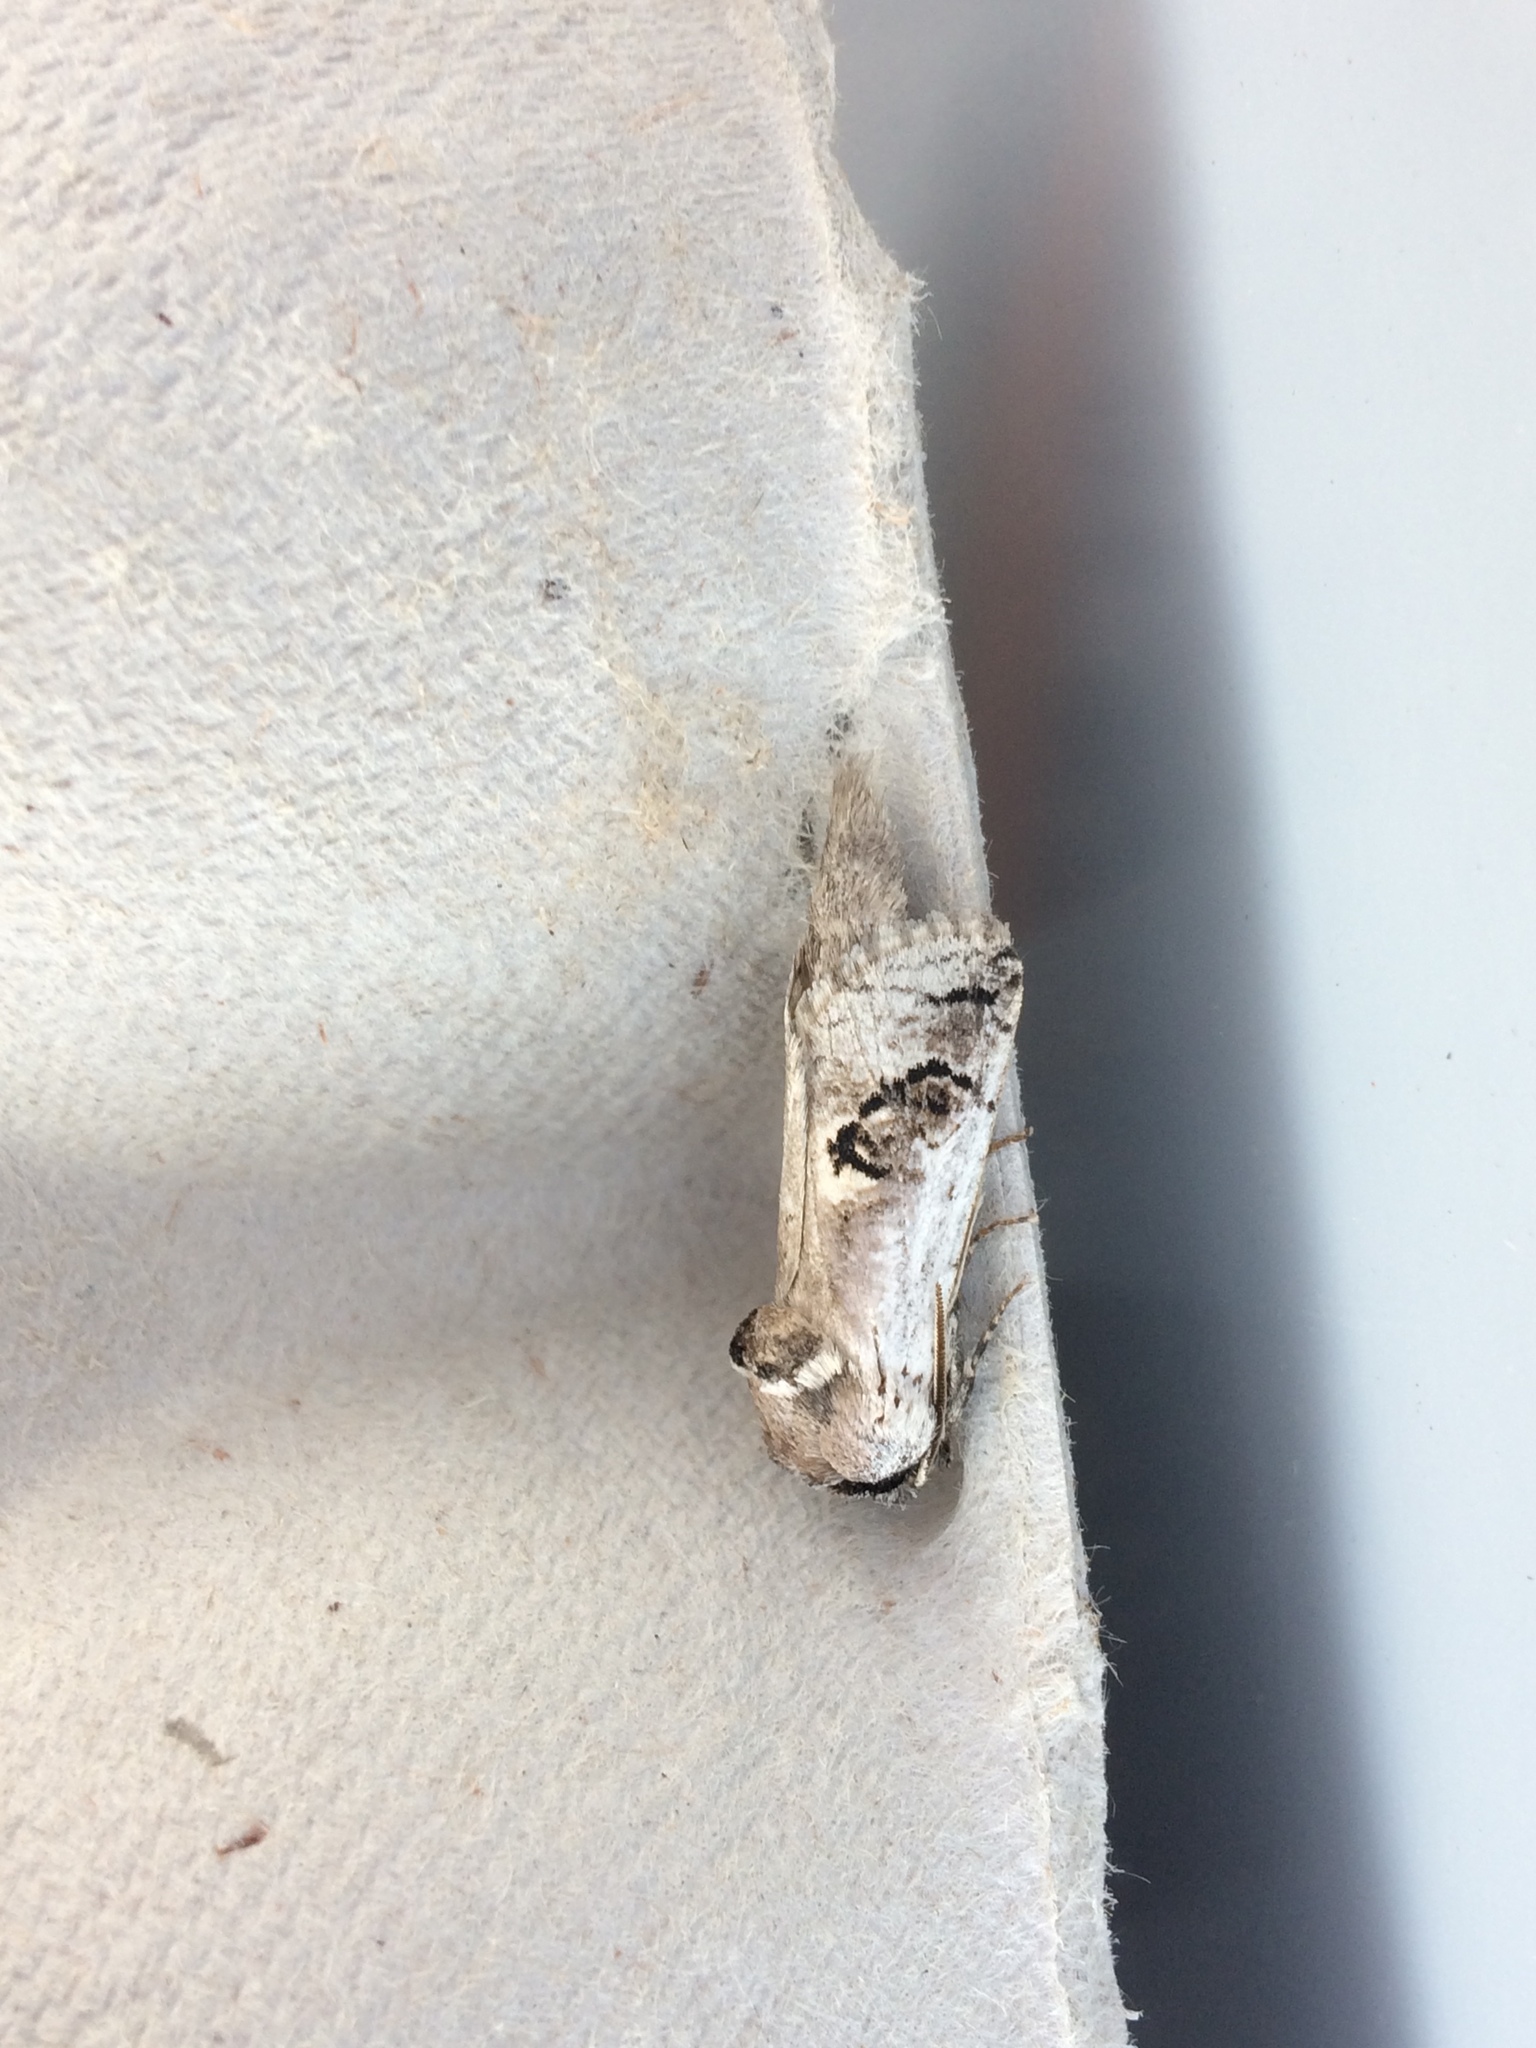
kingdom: Animalia
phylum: Arthropoda
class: Insecta
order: Lepidoptera
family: Cossidae
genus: Parahypopta
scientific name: Parahypopta caestrum
